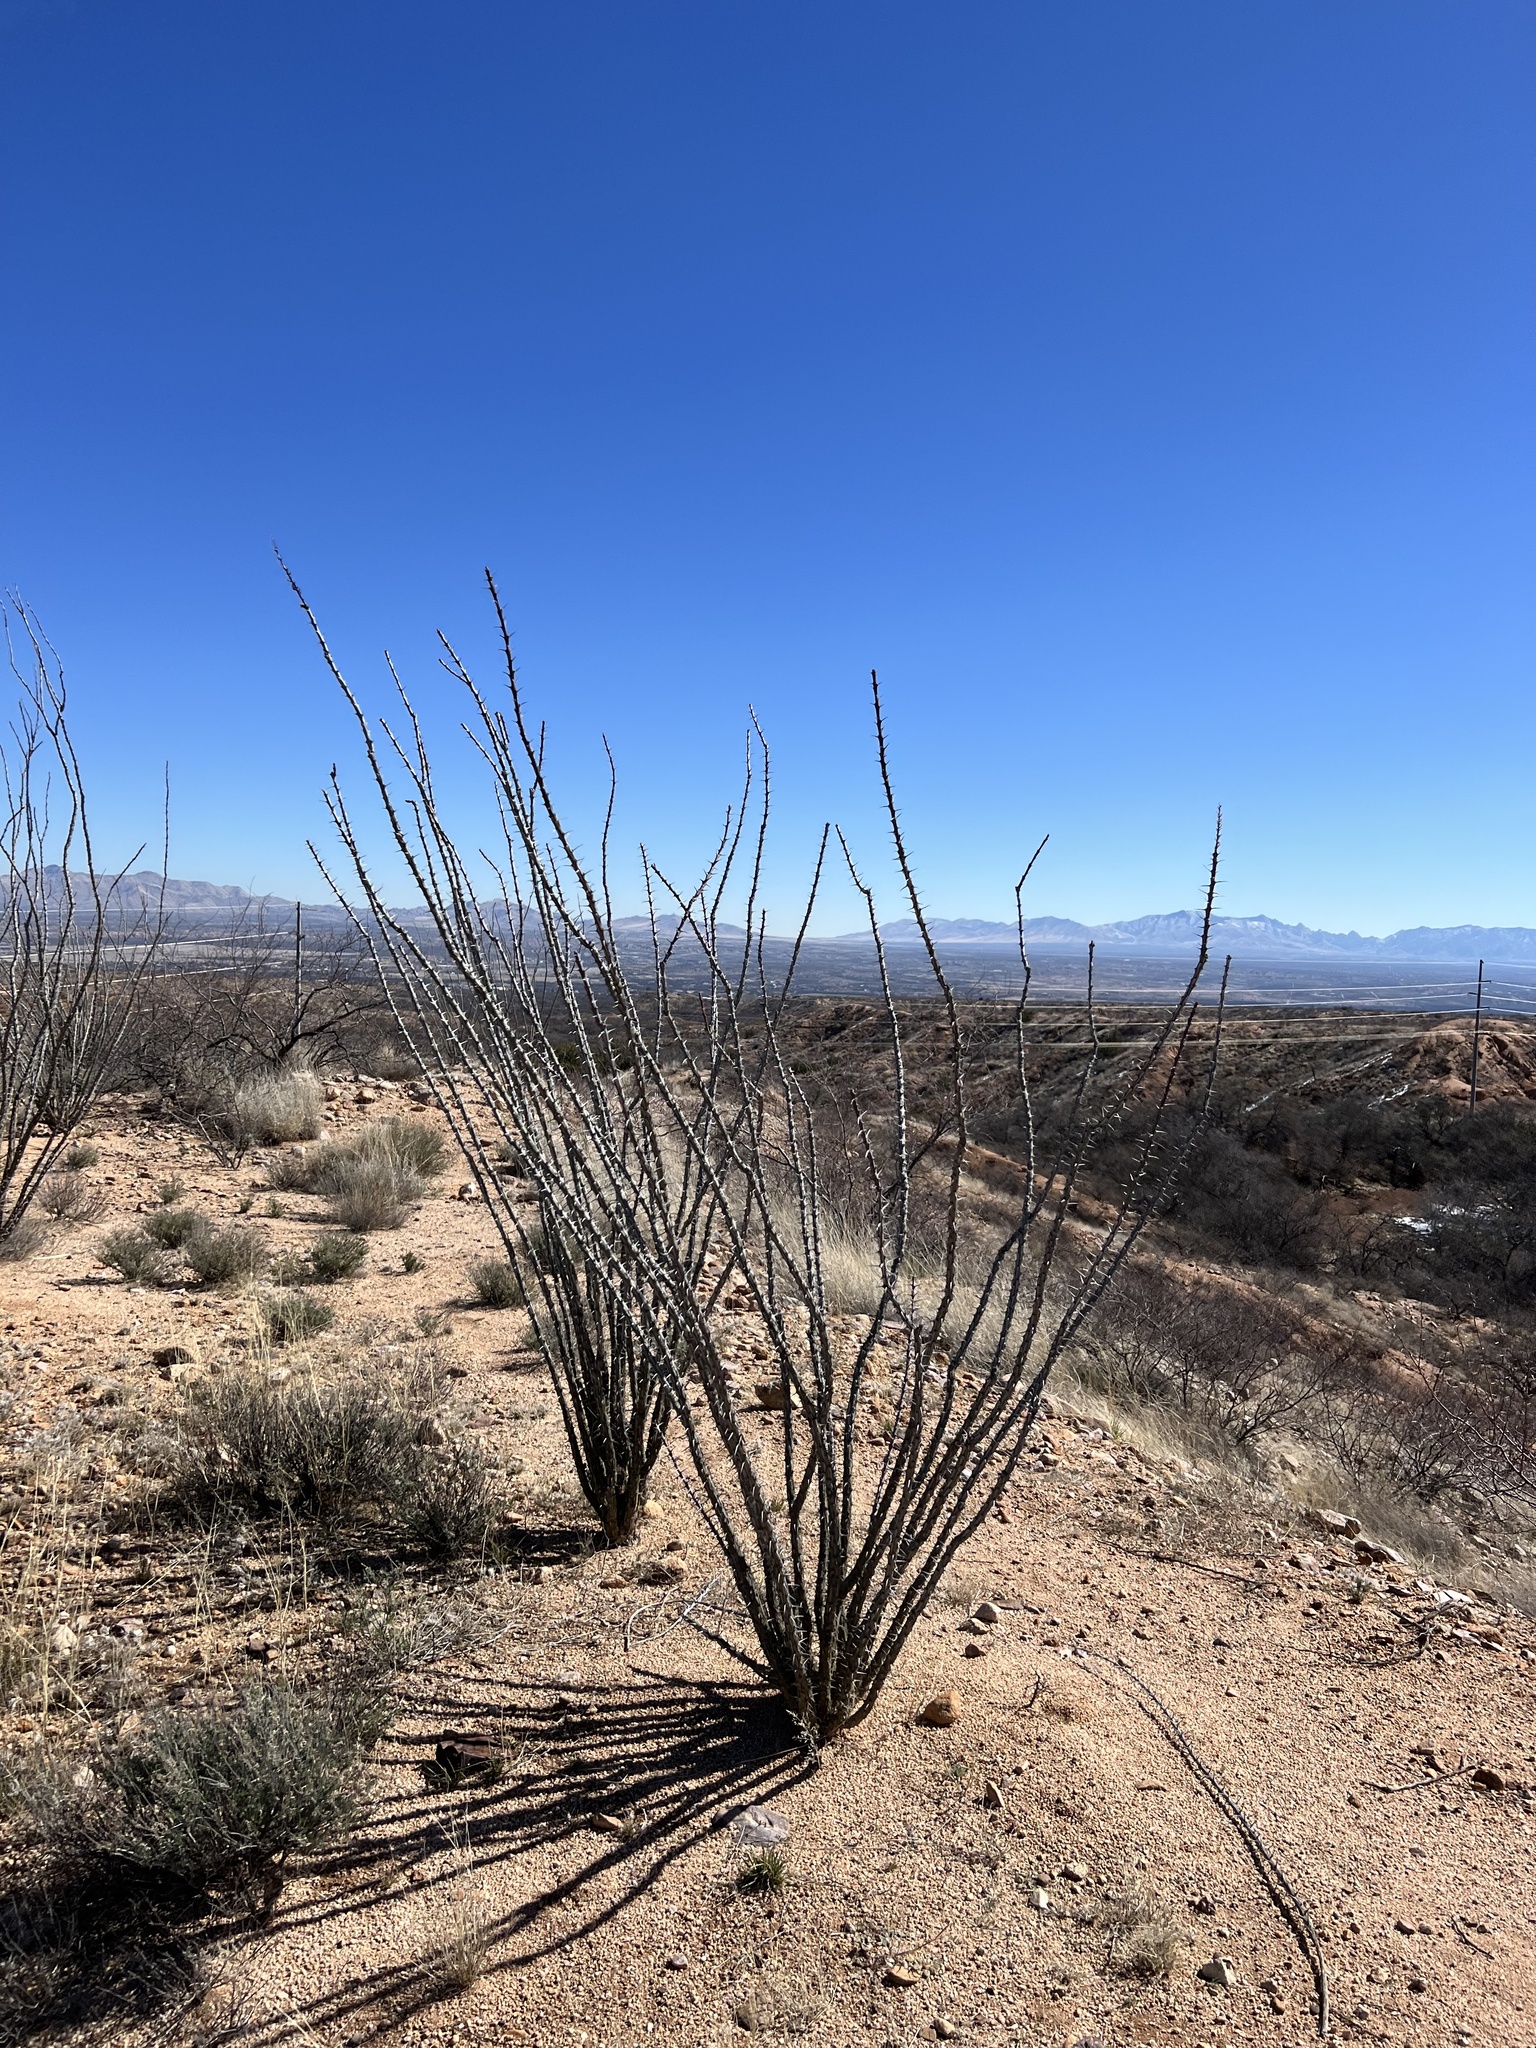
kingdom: Plantae
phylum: Tracheophyta
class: Magnoliopsida
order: Ericales
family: Fouquieriaceae
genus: Fouquieria
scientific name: Fouquieria splendens
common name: Vine-cactus
